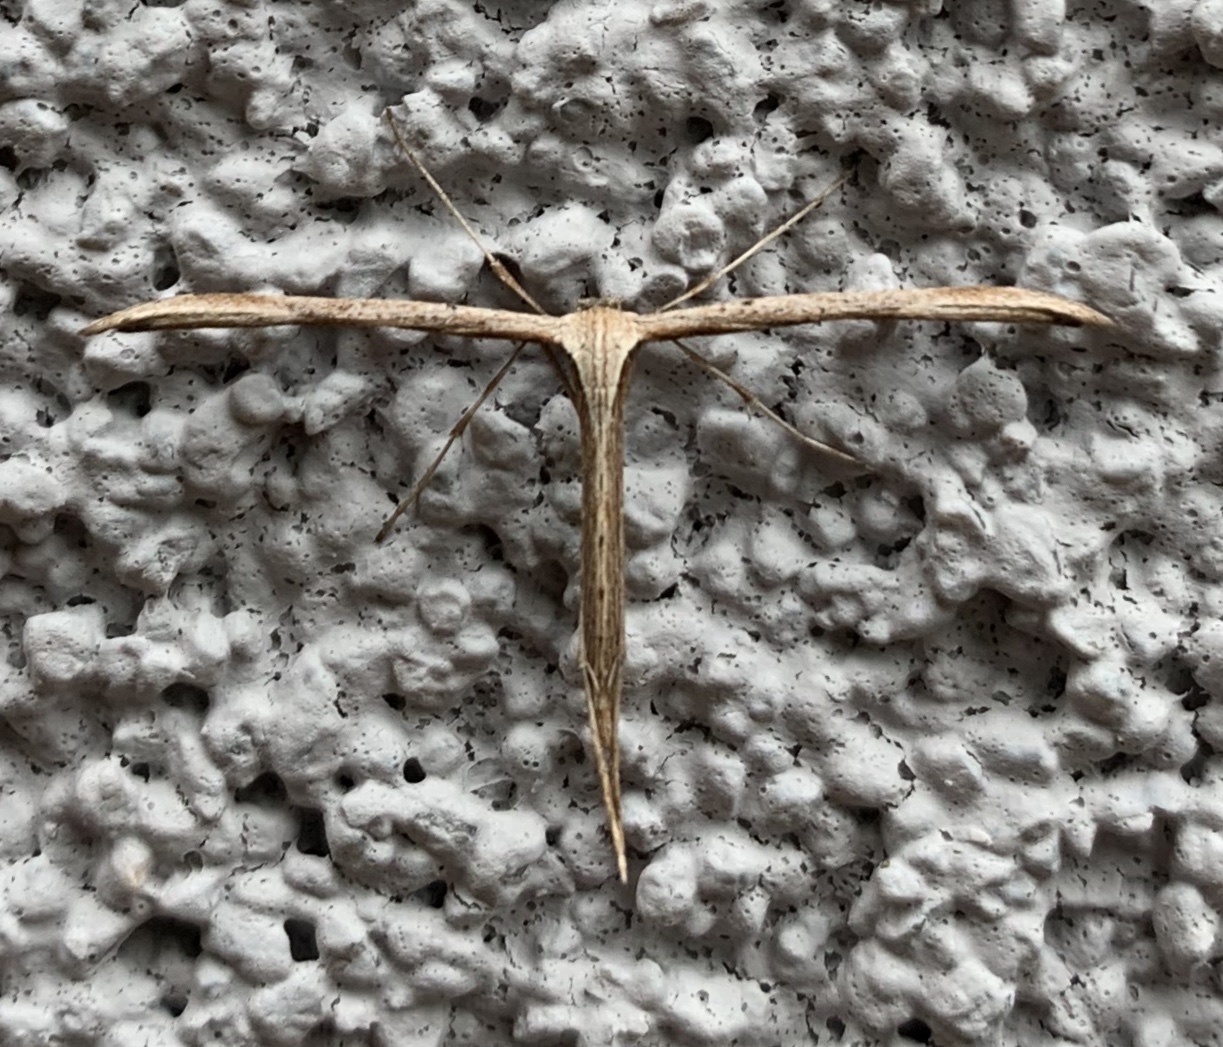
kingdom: Animalia
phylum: Arthropoda
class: Insecta
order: Lepidoptera
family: Pterophoridae
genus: Emmelina
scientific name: Emmelina monodactyla
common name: Common plume
